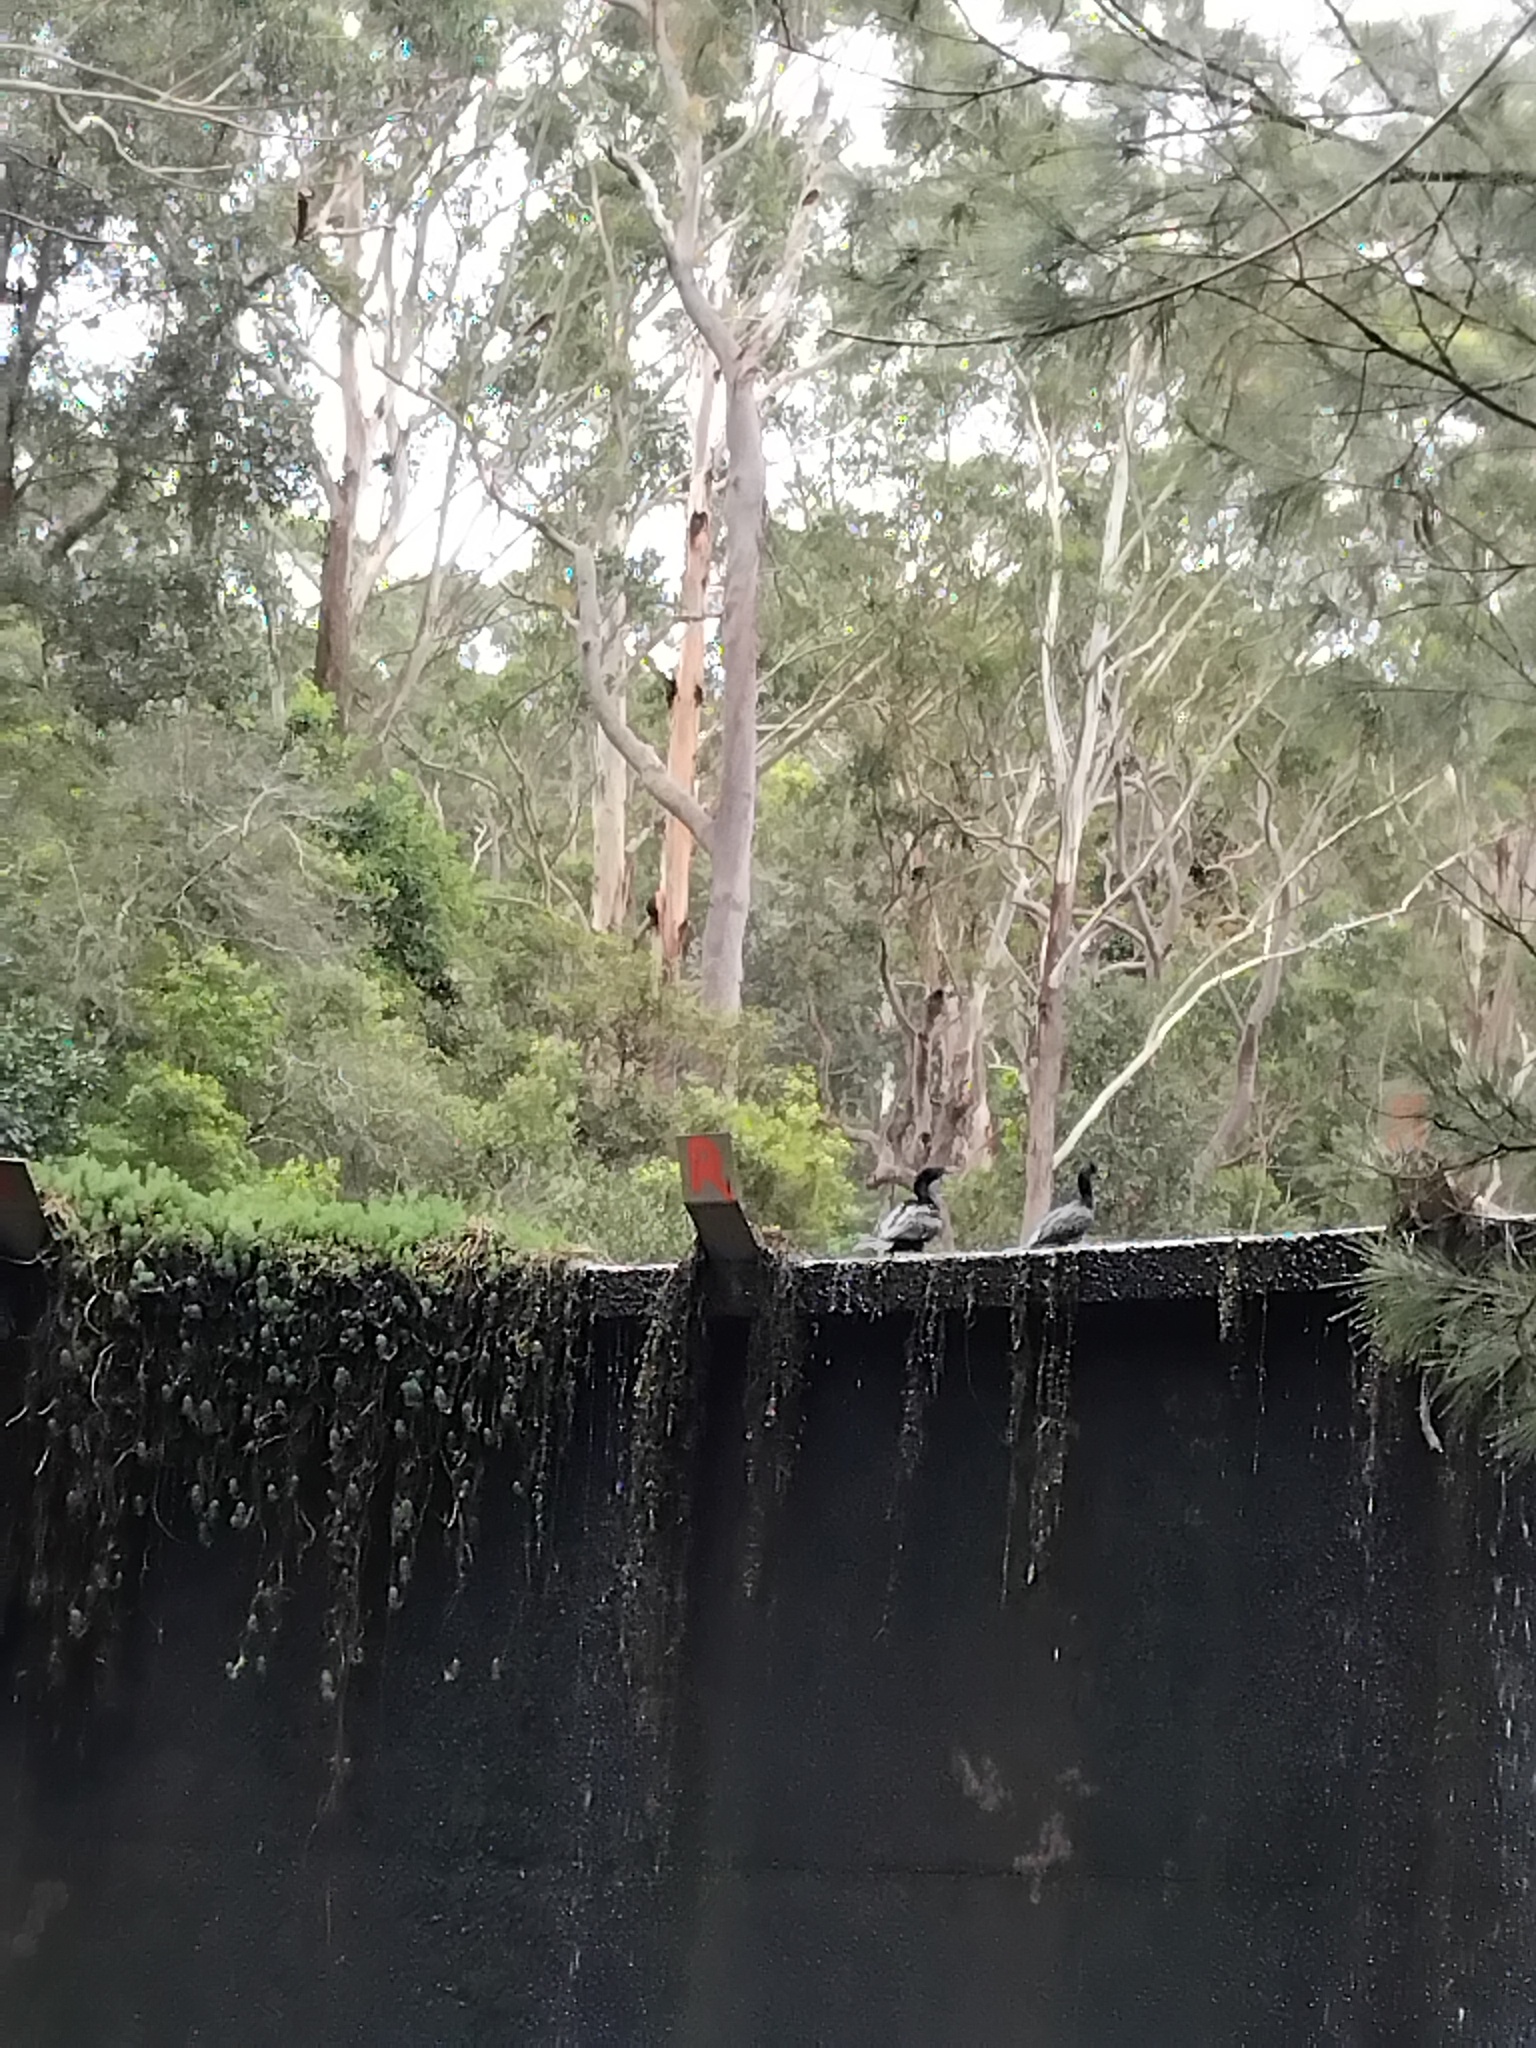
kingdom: Animalia
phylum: Chordata
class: Aves
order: Suliformes
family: Phalacrocoracidae
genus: Phalacrocorax
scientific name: Phalacrocorax sulcirostris
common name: Little black cormorant
